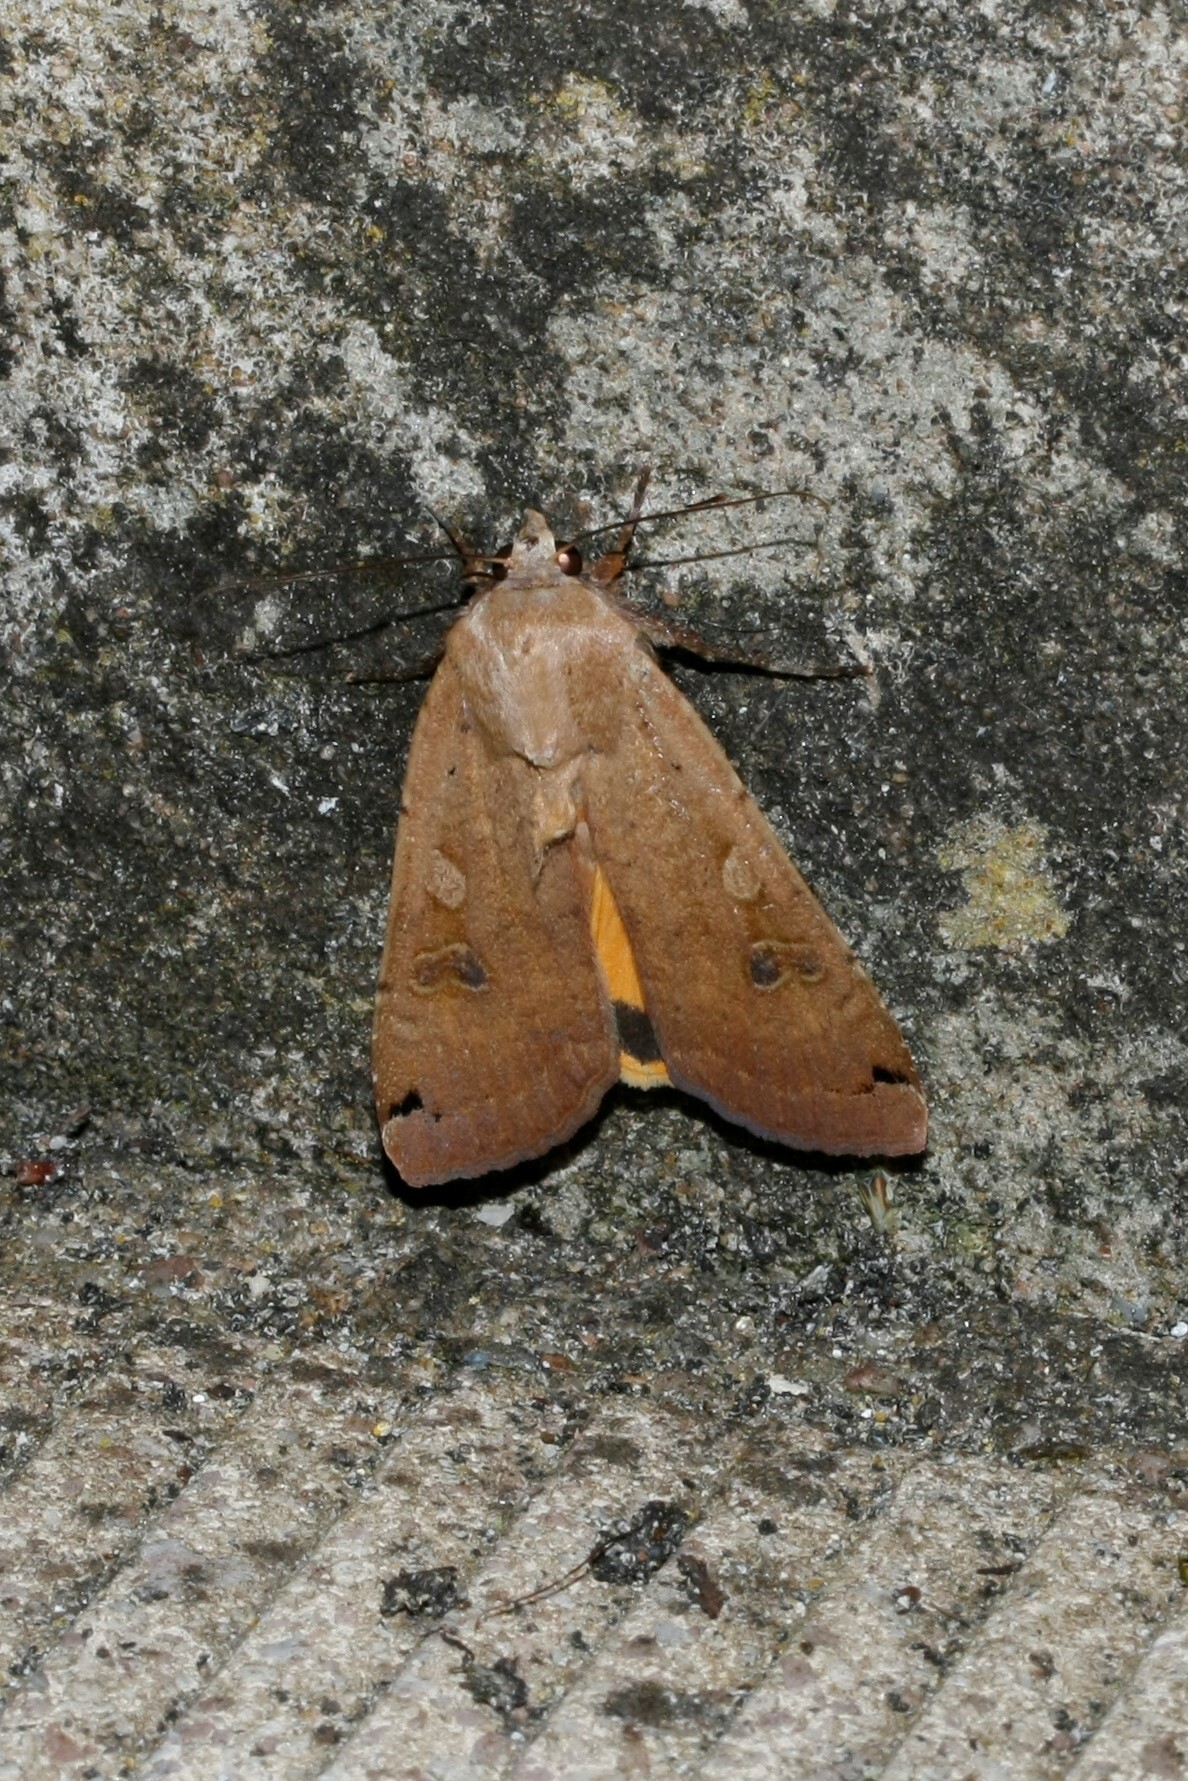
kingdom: Animalia
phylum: Arthropoda
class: Insecta
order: Lepidoptera
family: Noctuidae
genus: Noctua
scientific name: Noctua pronuba
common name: Large yellow underwing
